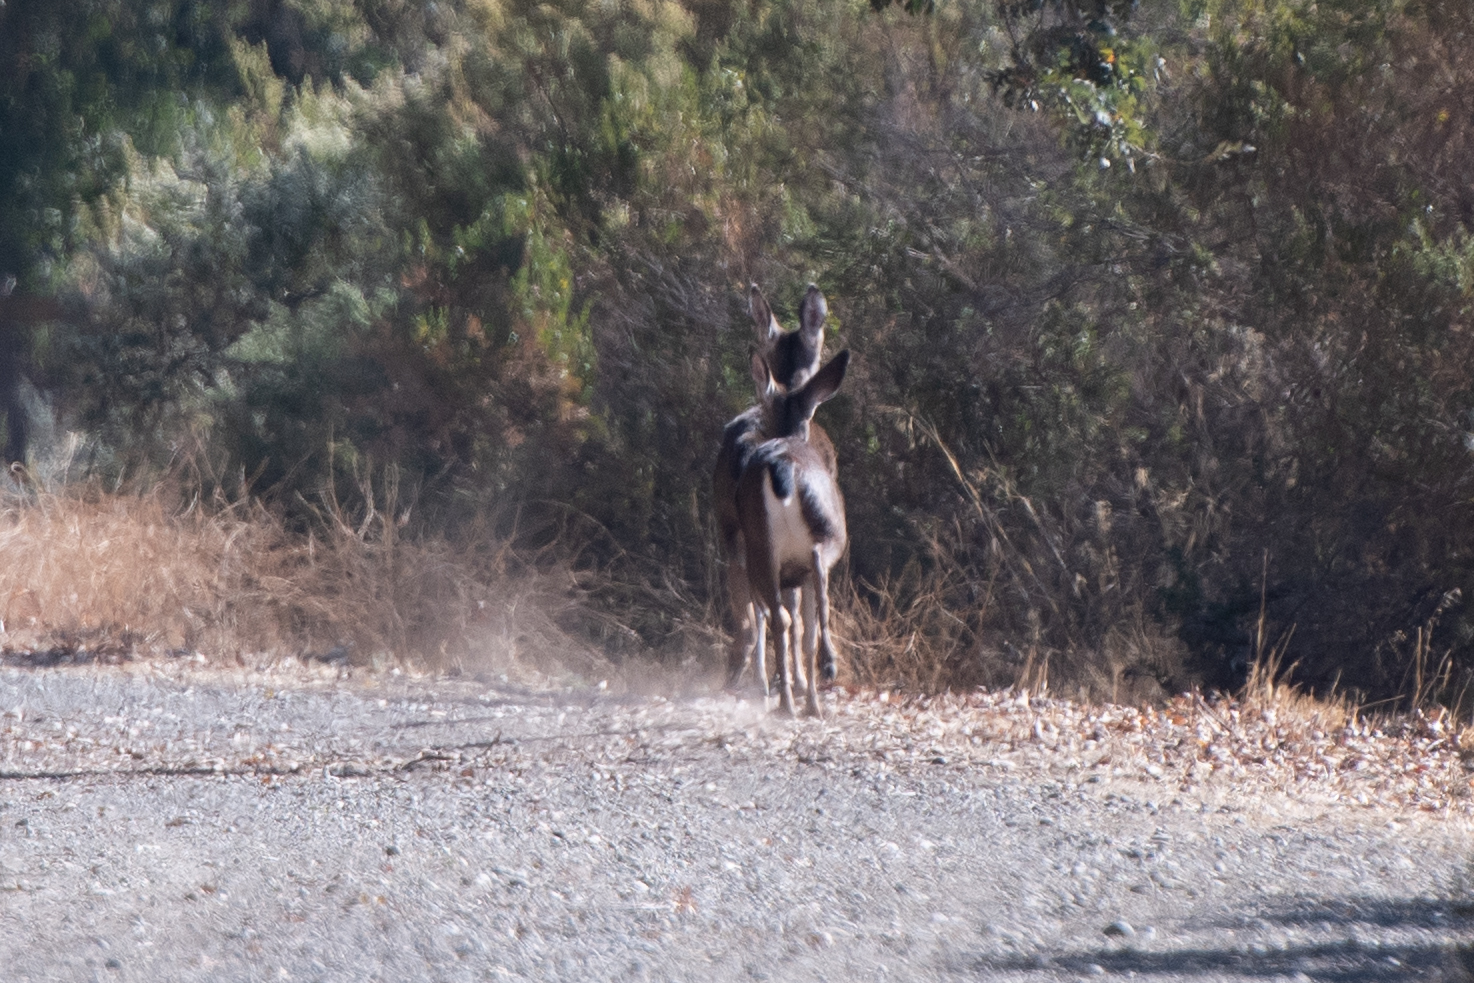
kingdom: Animalia
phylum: Chordata
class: Mammalia
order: Artiodactyla
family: Cervidae
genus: Odocoileus
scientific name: Odocoileus hemionus
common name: Mule deer
